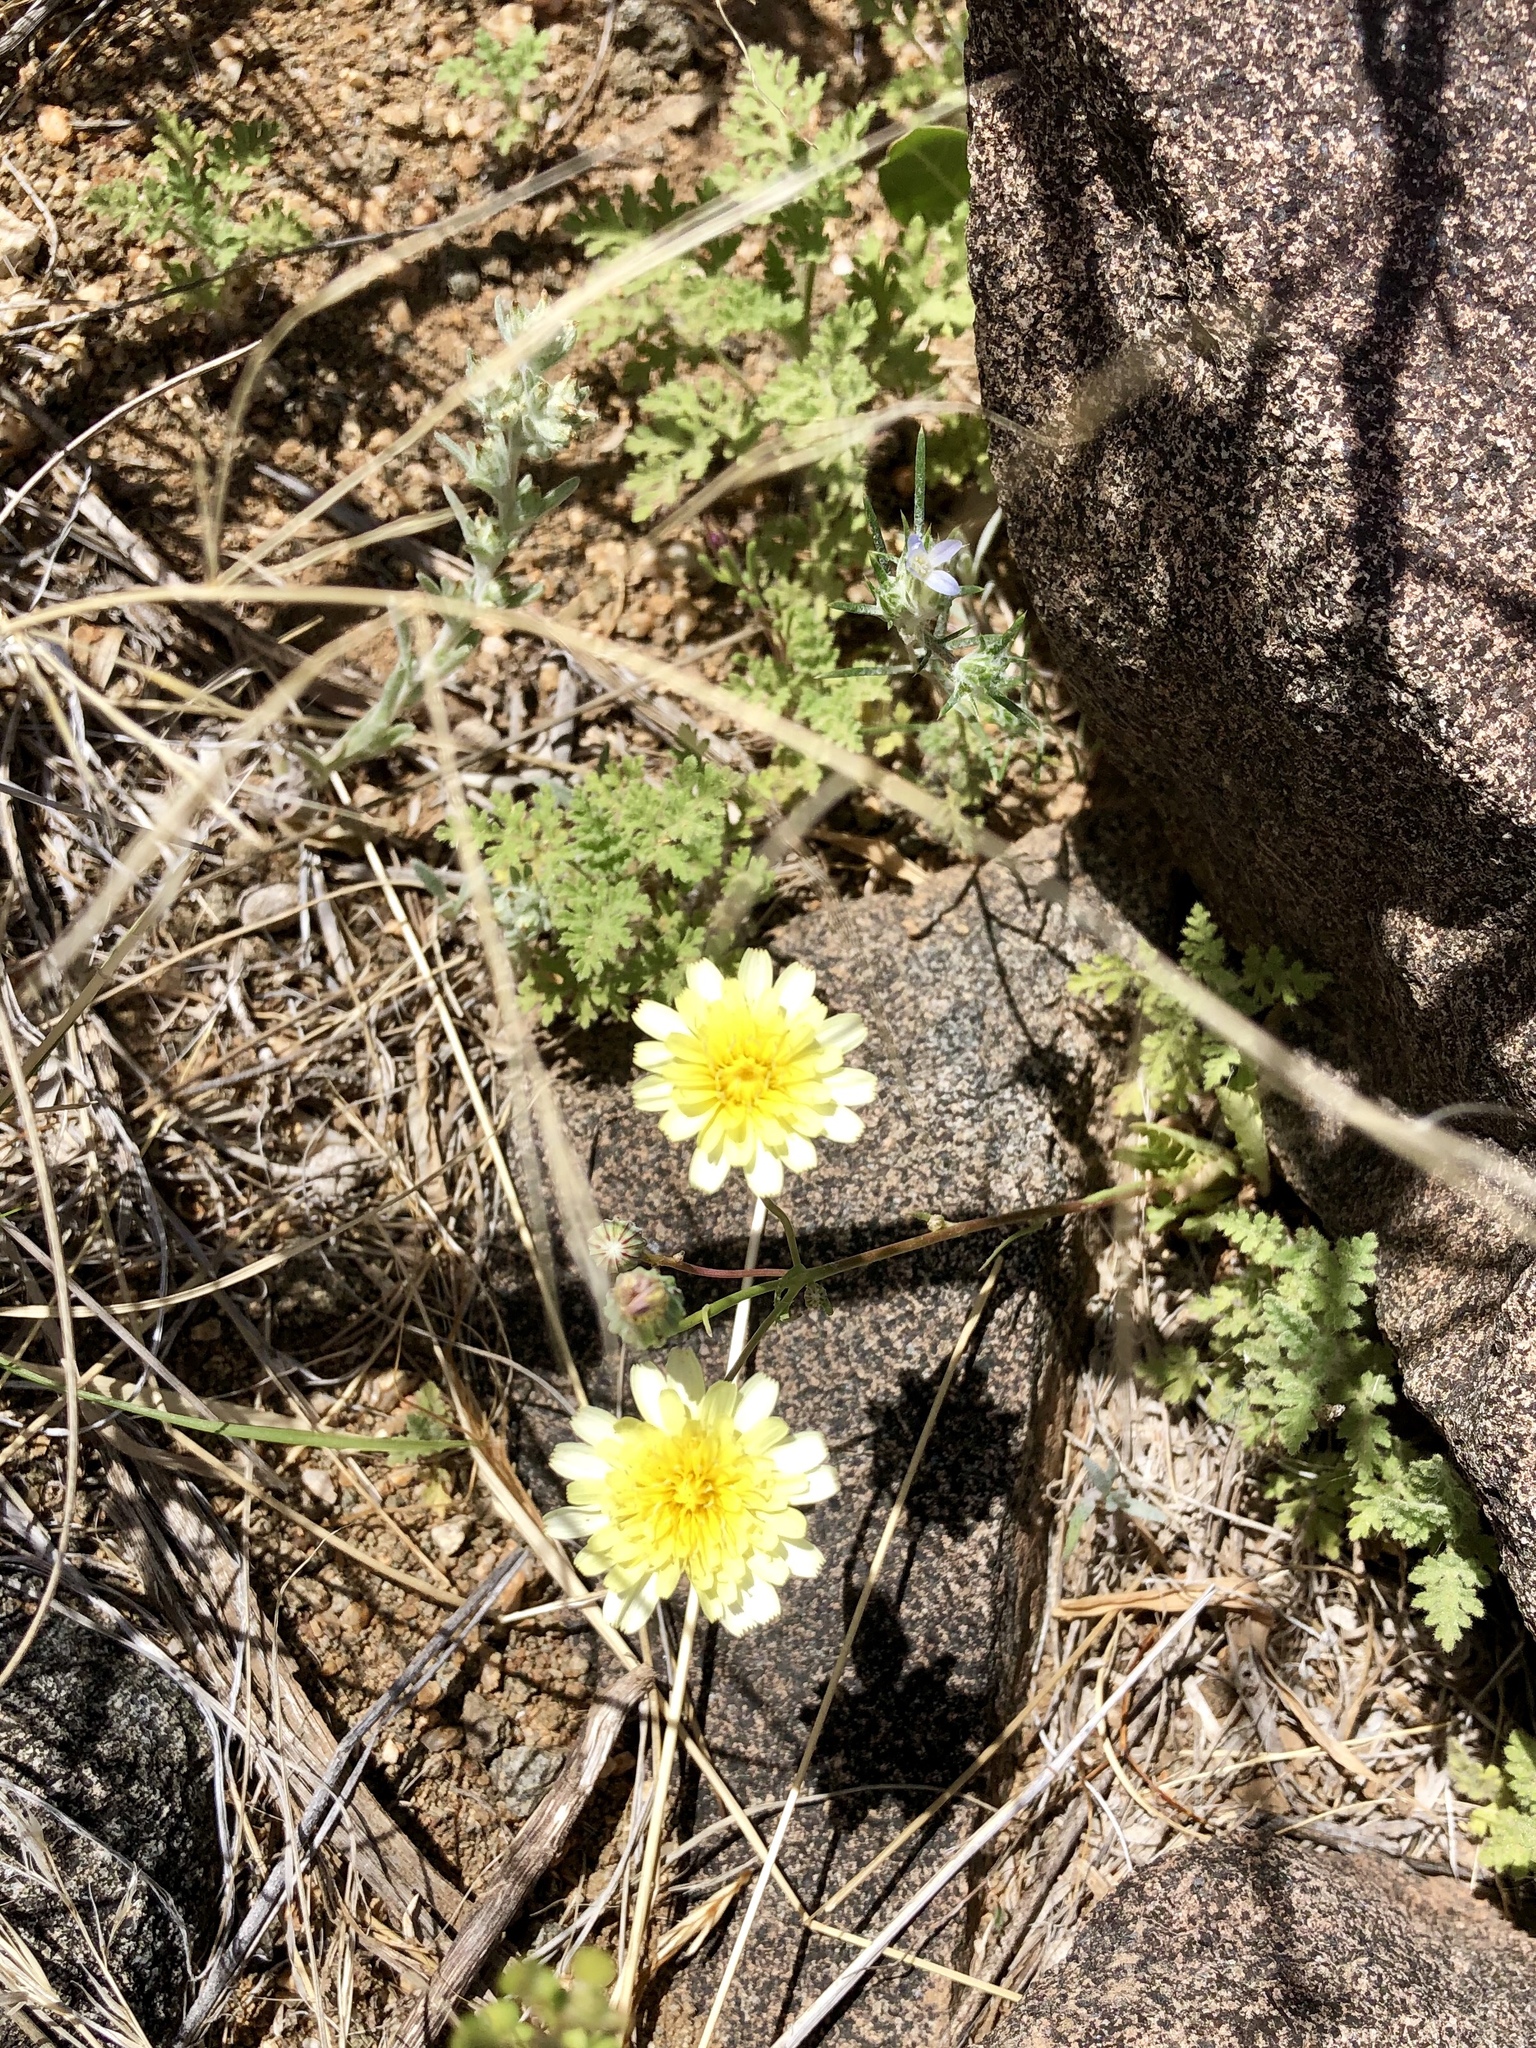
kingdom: Plantae
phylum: Tracheophyta
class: Magnoliopsida
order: Asterales
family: Asteraceae
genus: Malacothrix
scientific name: Malacothrix fendleri
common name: Fendler's desert-dandelion
